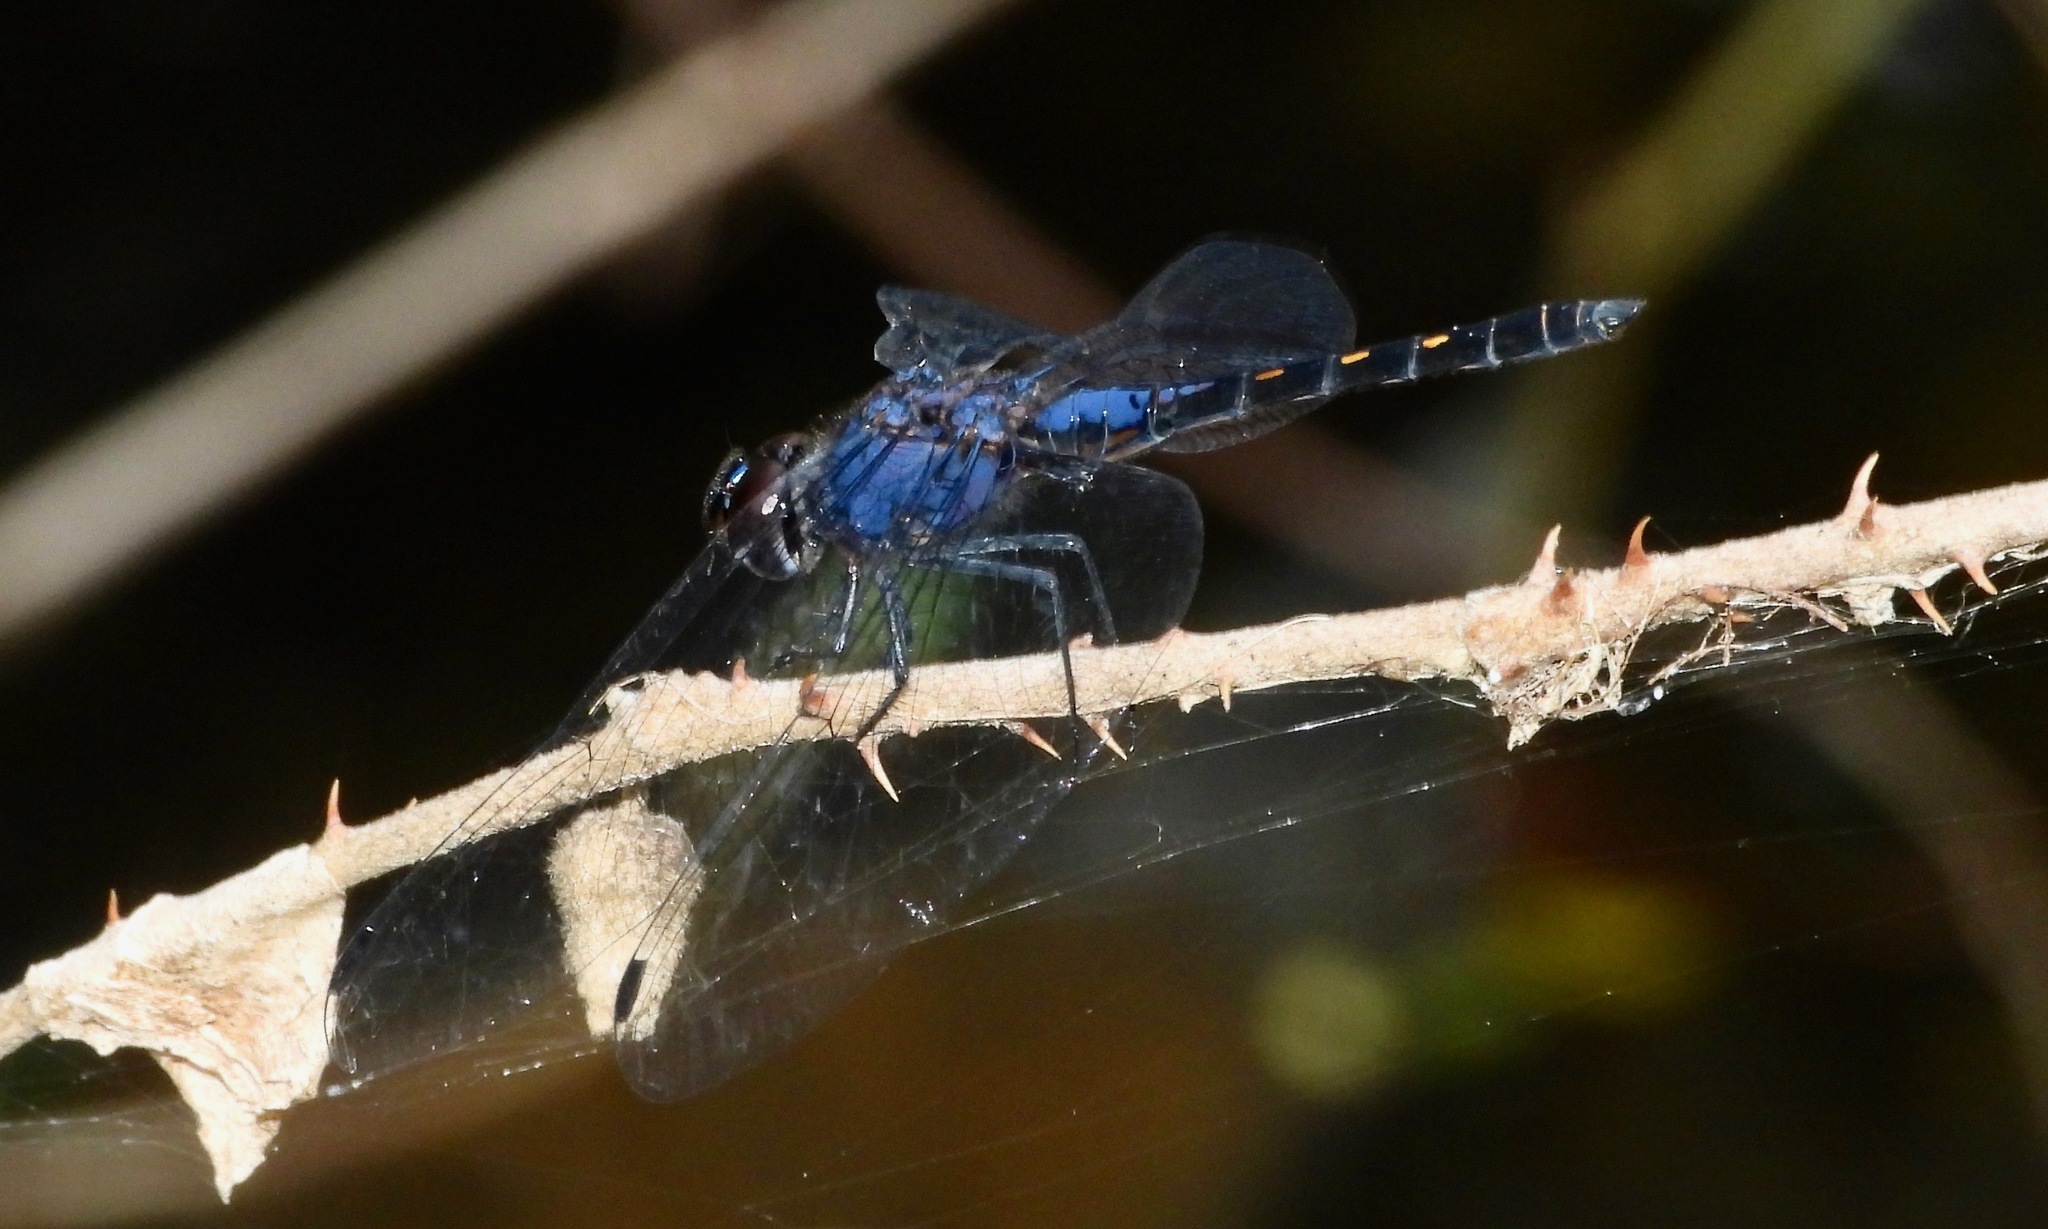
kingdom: Animalia
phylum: Arthropoda
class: Insecta
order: Odonata
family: Libellulidae
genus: Trithemis
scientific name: Trithemis festiva
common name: Indigo dropwing
